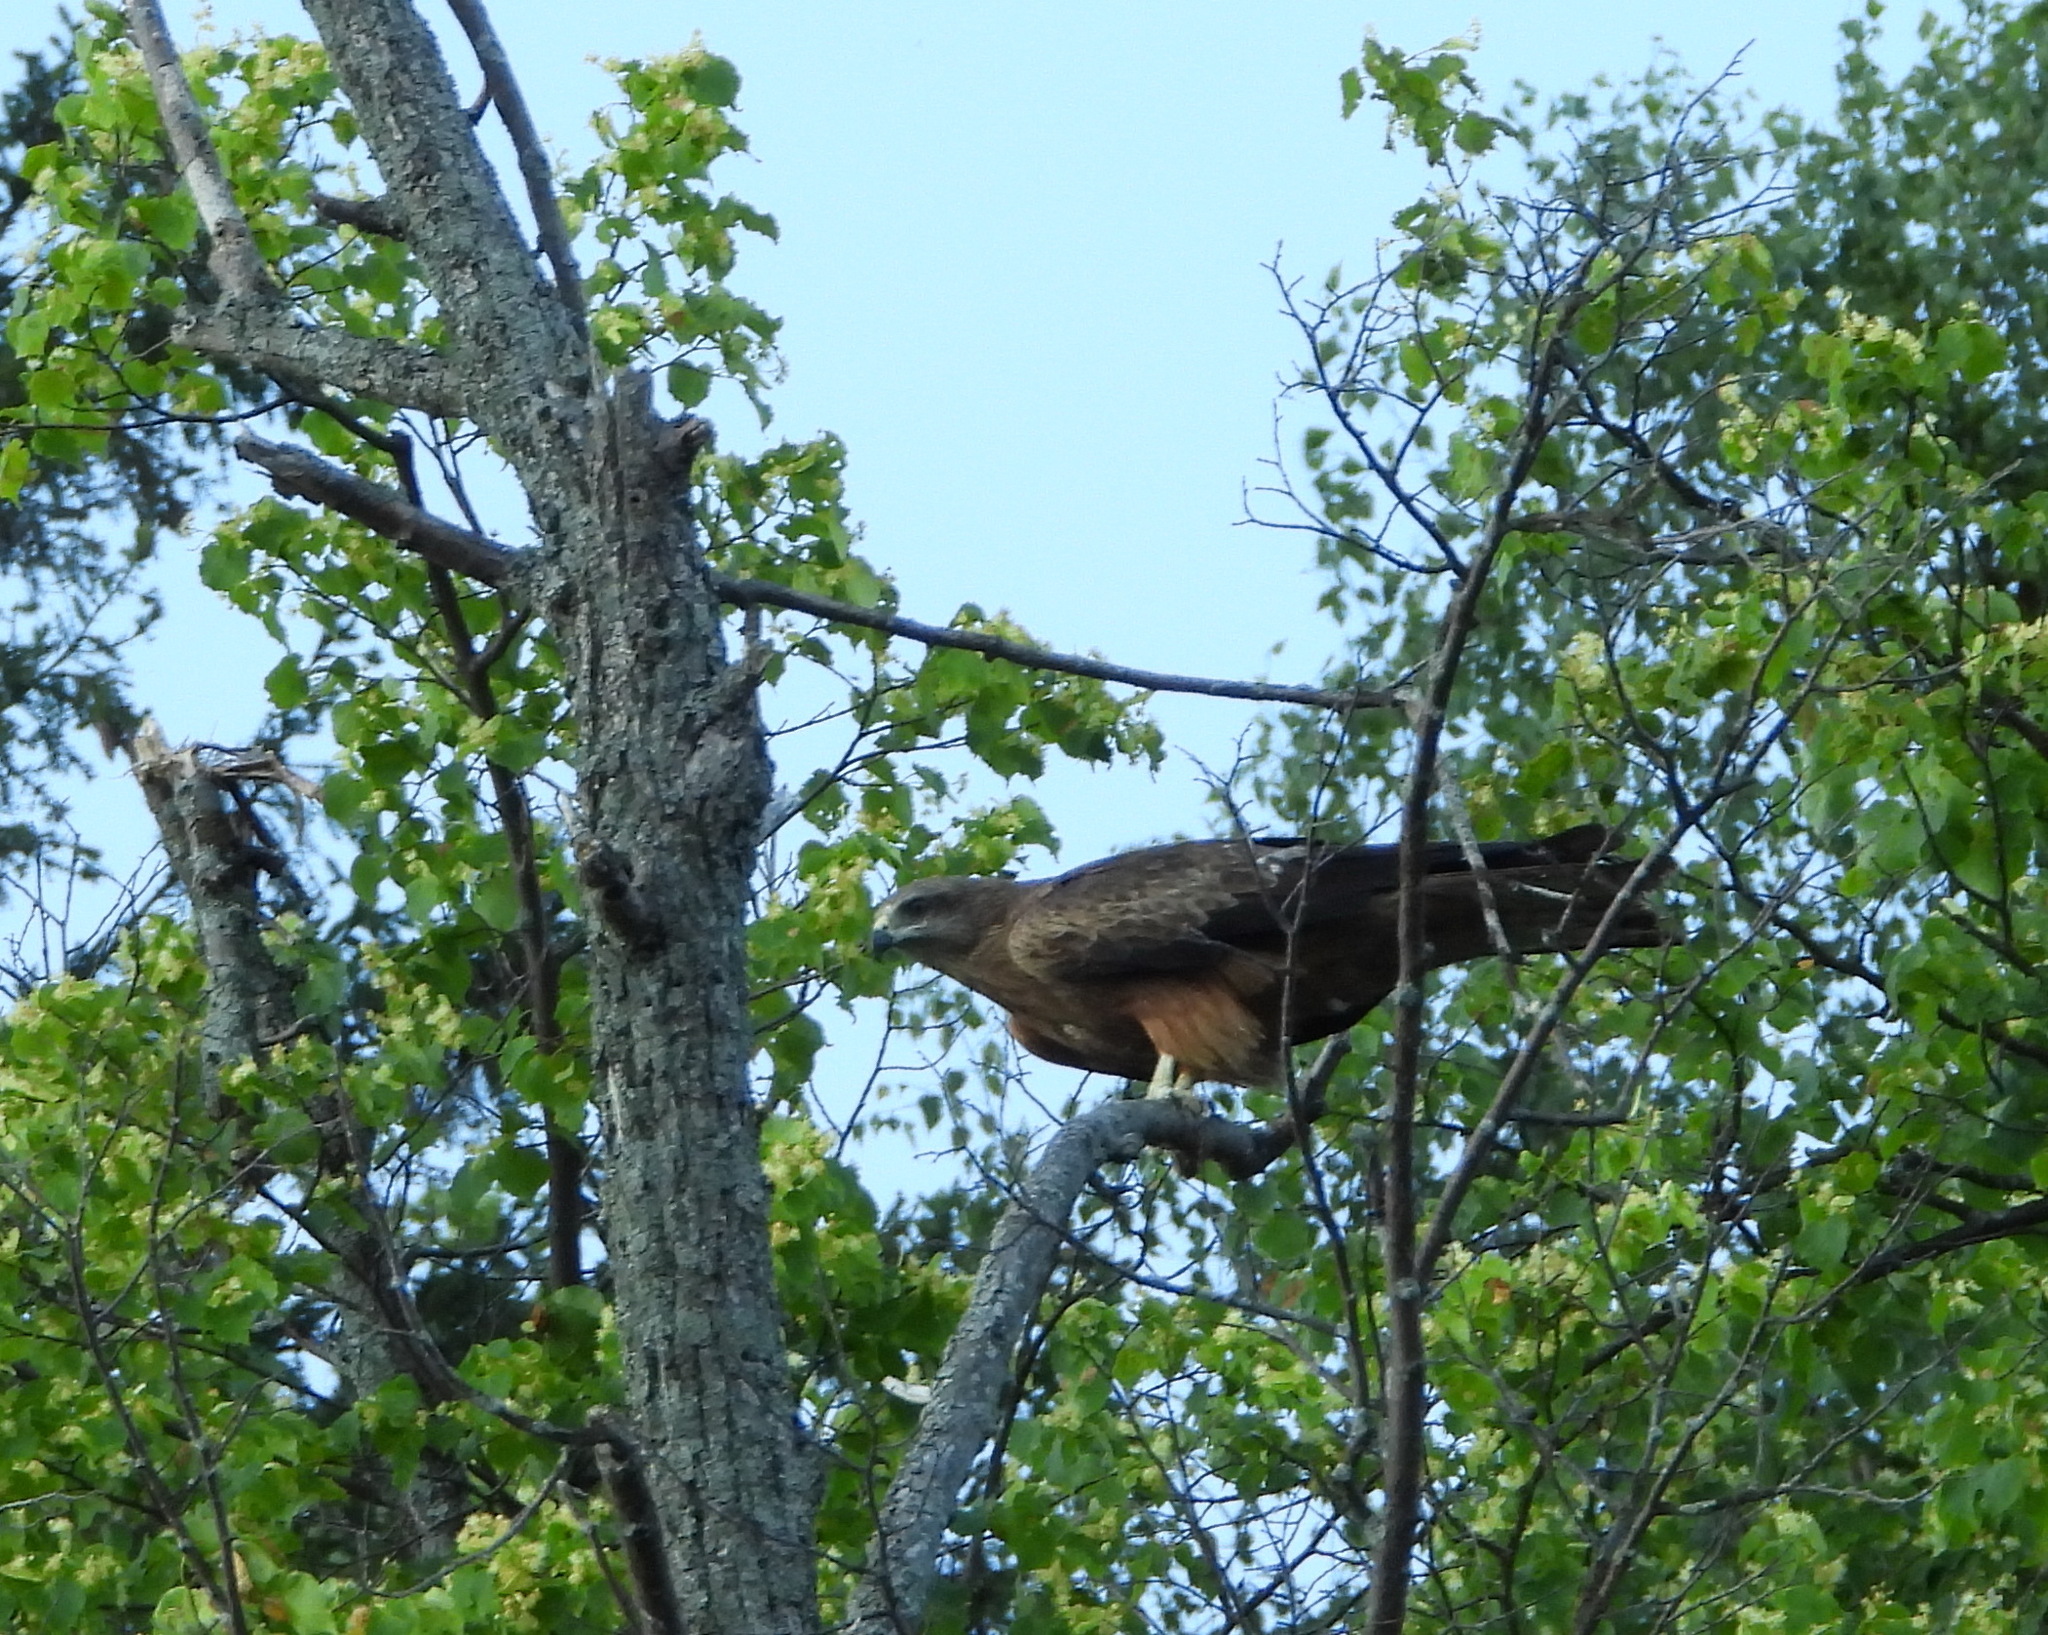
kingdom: Animalia
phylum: Chordata
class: Aves
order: Accipitriformes
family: Accipitridae
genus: Milvus
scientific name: Milvus migrans
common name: Black kite
